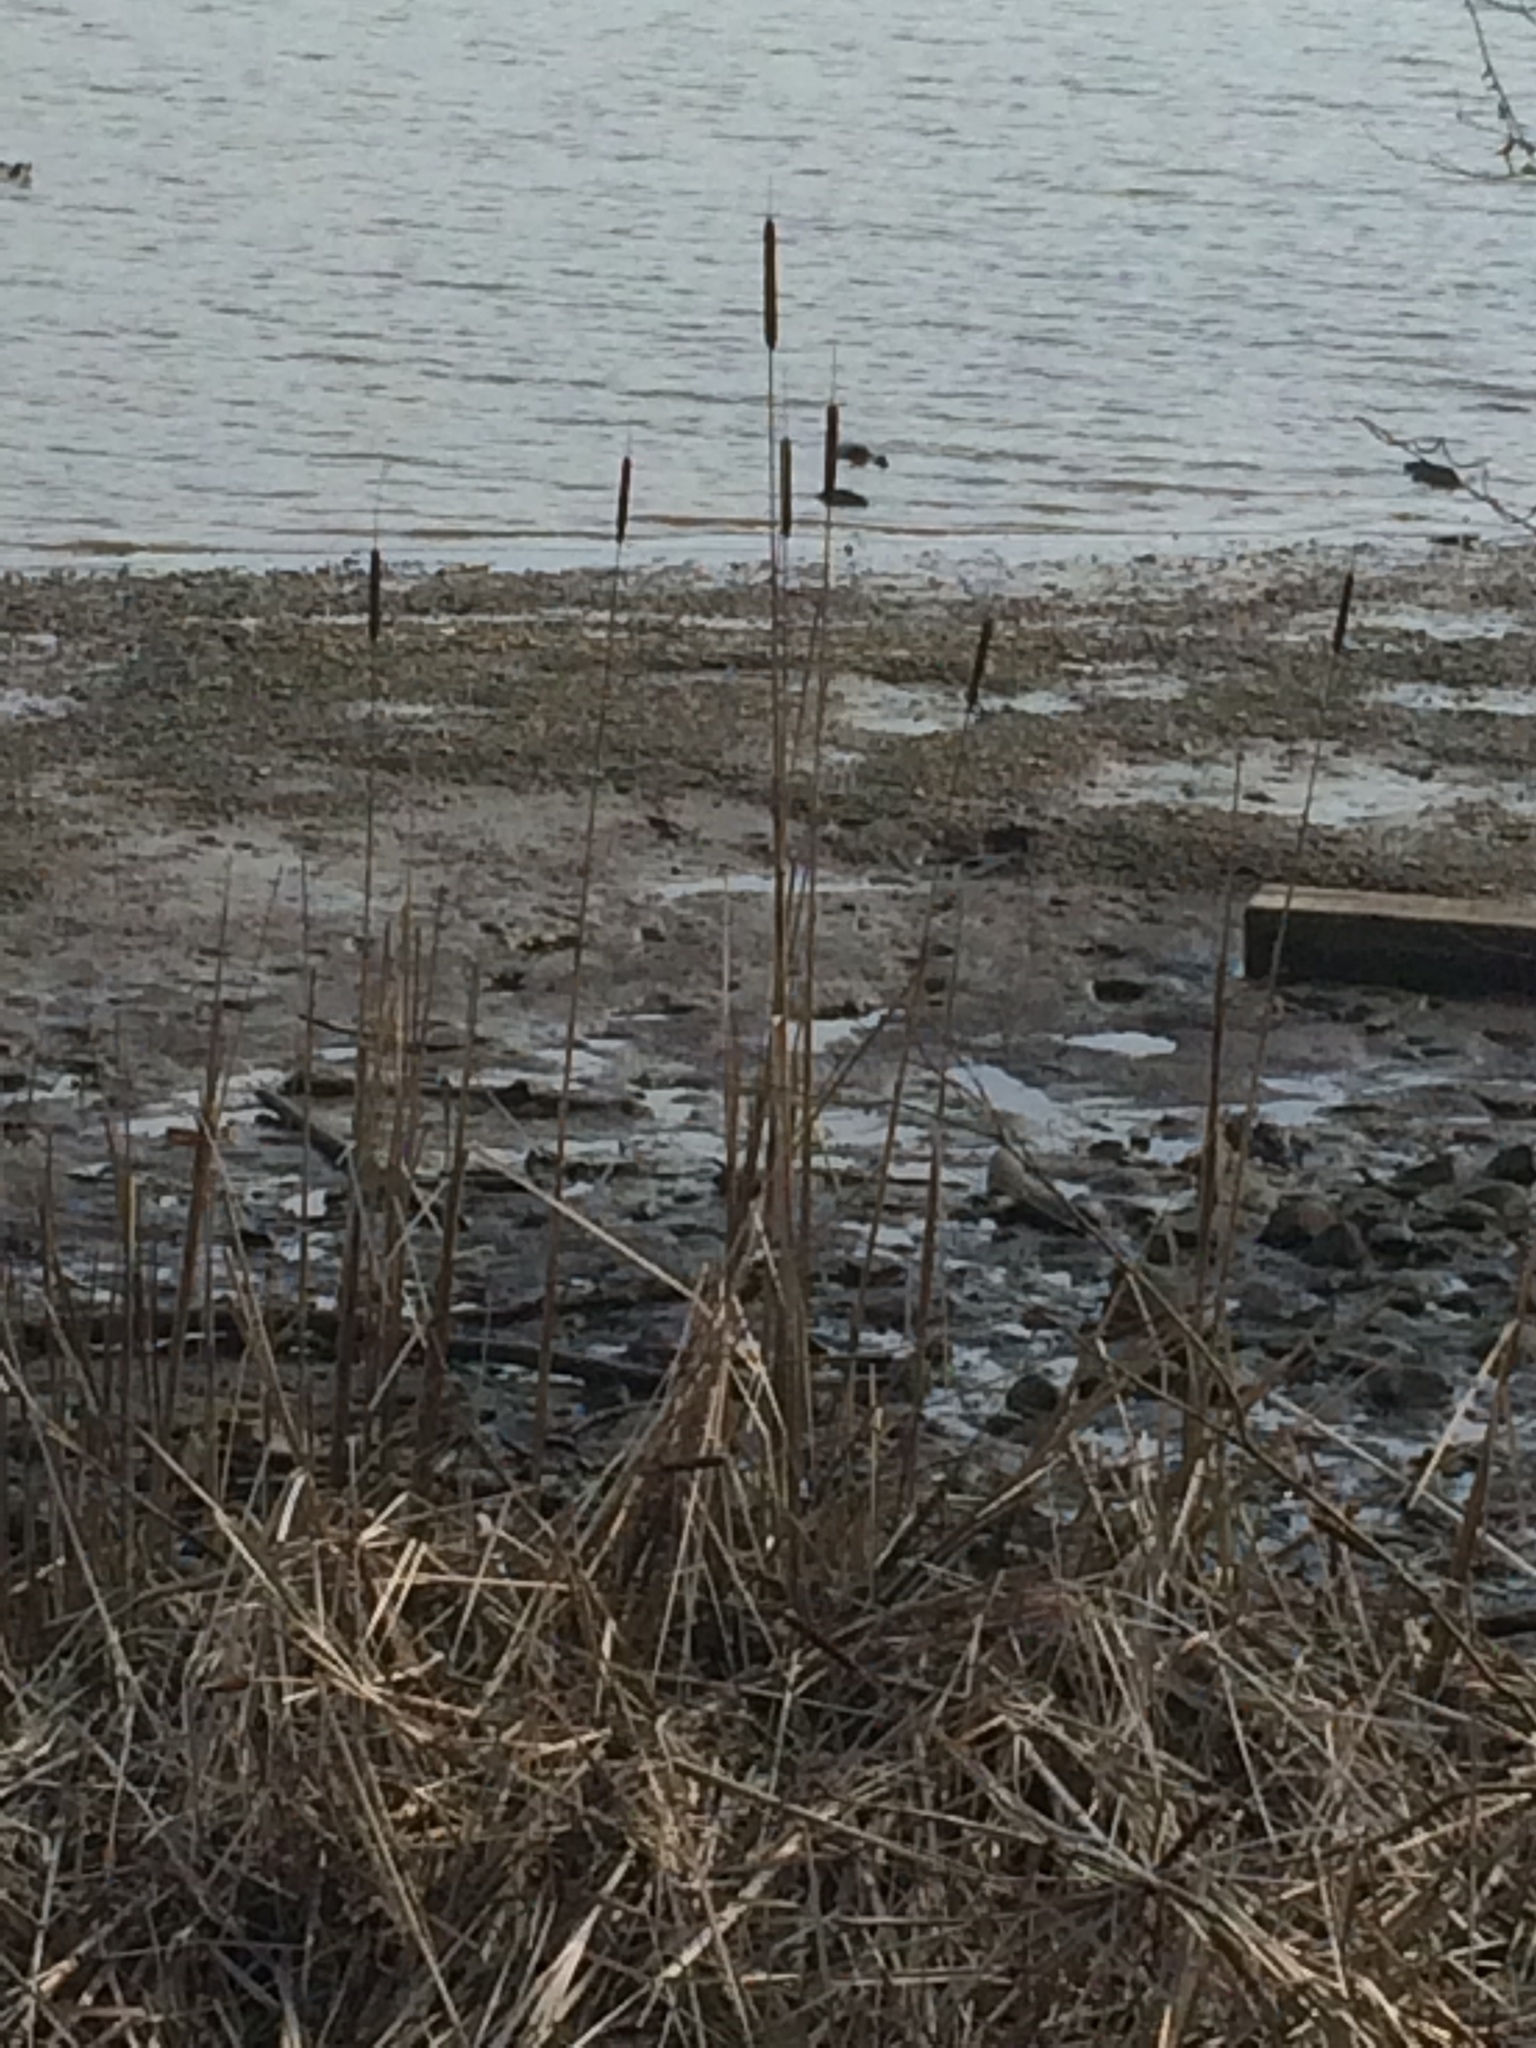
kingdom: Plantae
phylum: Tracheophyta
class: Liliopsida
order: Poales
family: Typhaceae
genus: Typha
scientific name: Typha angustifolia
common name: Lesser bulrush
